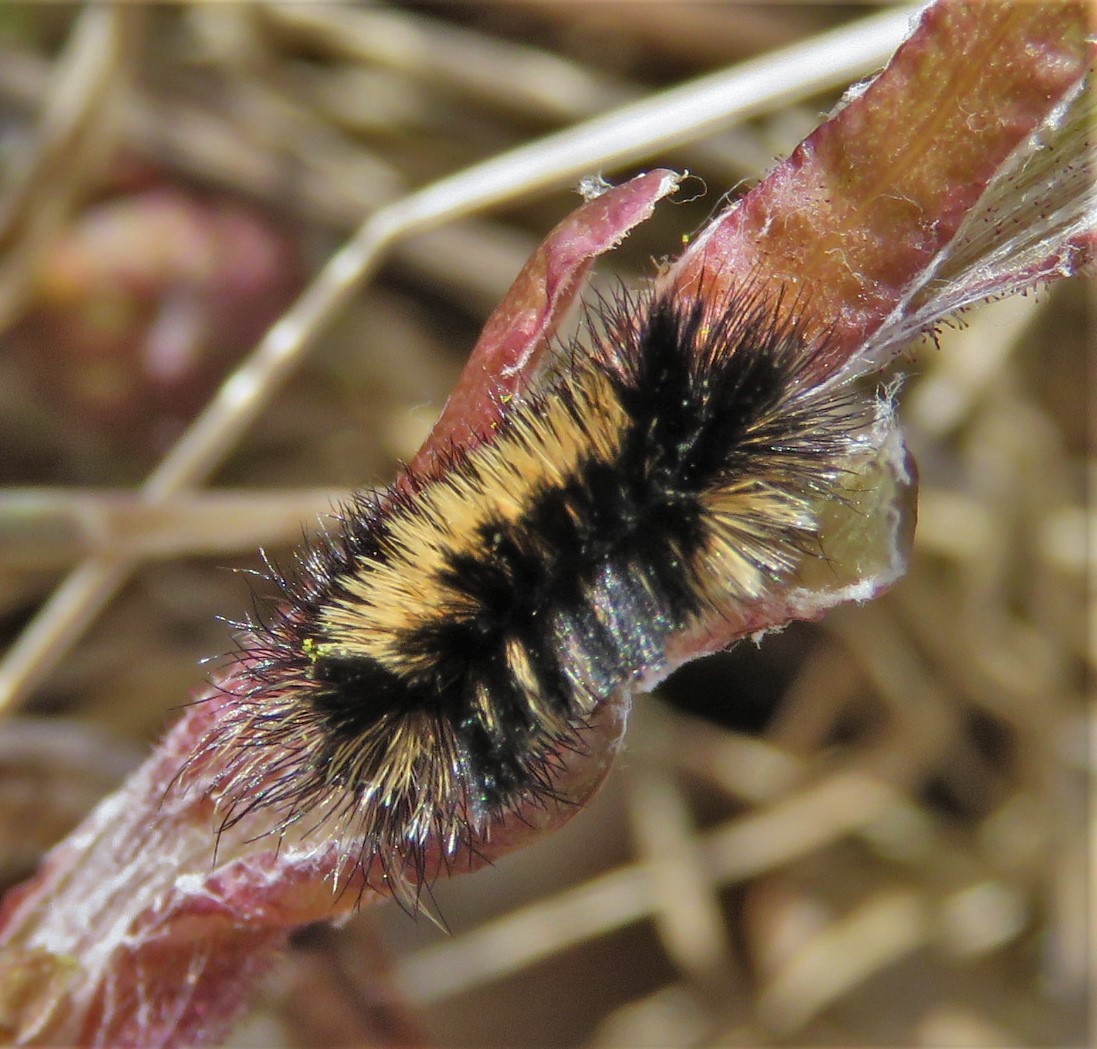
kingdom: Animalia
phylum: Arthropoda
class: Insecta
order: Lepidoptera
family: Erebidae
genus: Ctenucha
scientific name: Ctenucha virginica
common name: Virginia ctenucha moth
